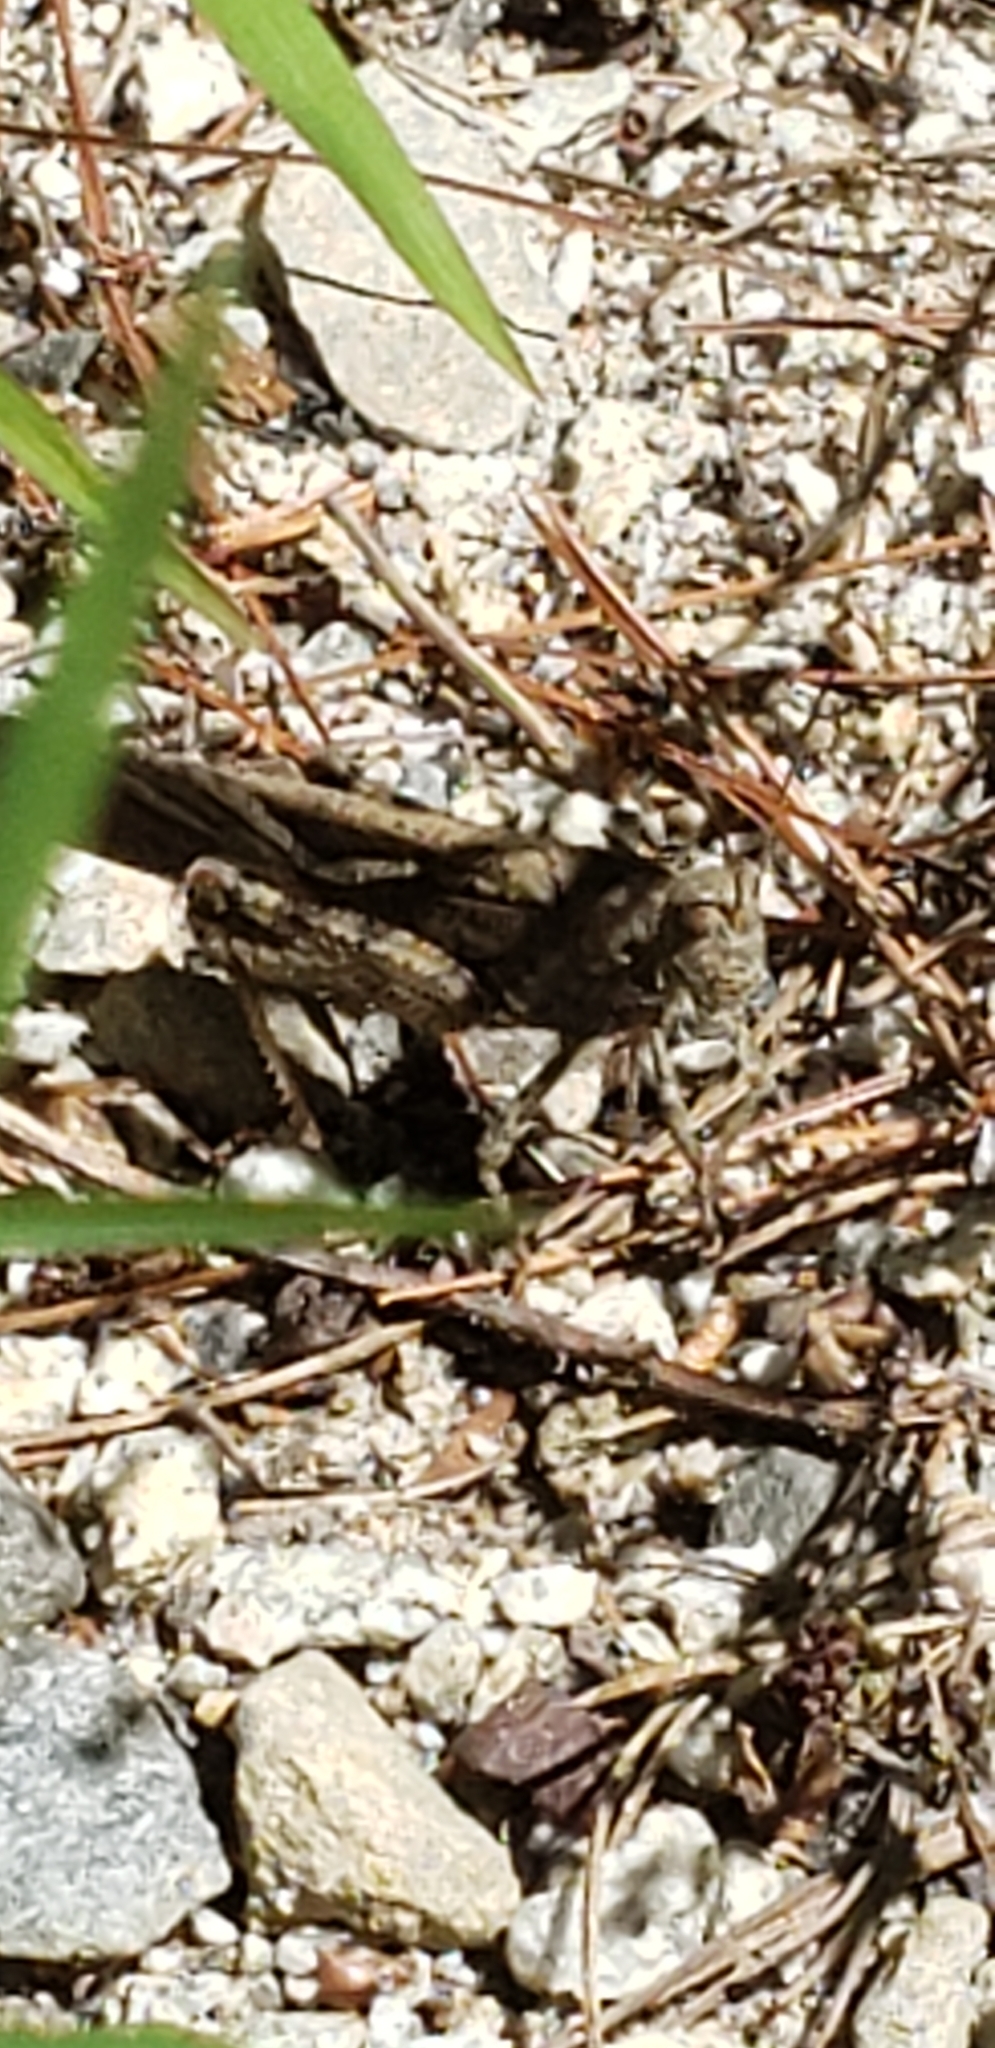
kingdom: Animalia
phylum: Arthropoda
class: Insecta
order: Orthoptera
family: Acrididae
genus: Dissosteira
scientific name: Dissosteira carolina
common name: Carolina grasshopper
